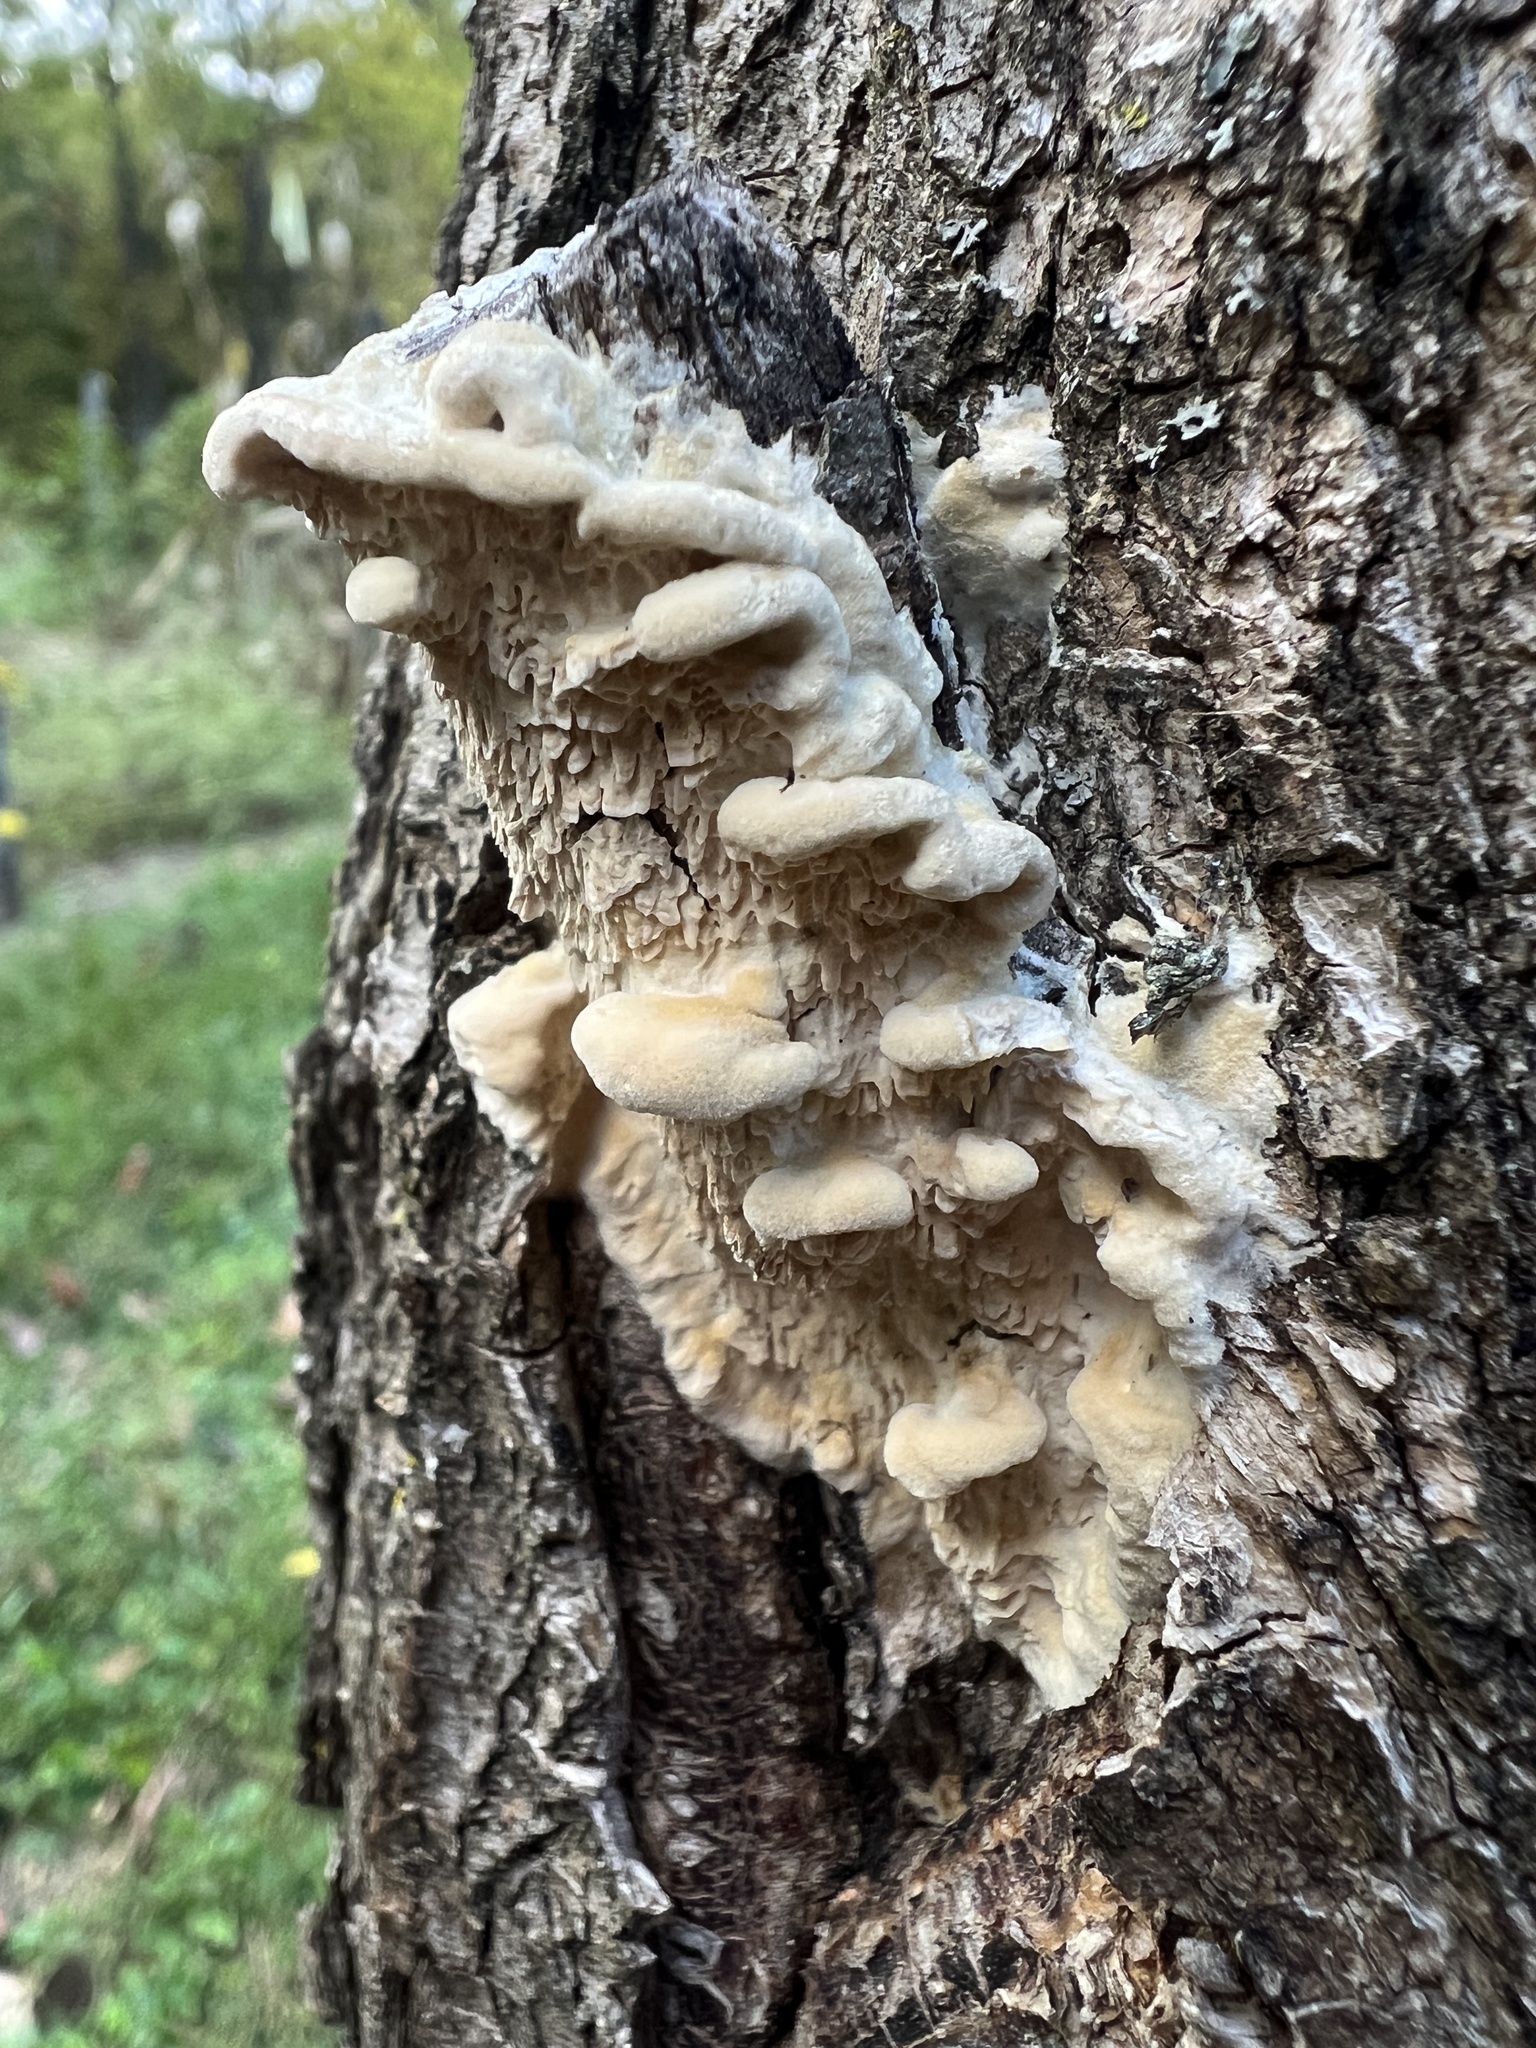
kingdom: Fungi
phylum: Basidiomycota
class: Agaricomycetes
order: Polyporales
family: Meruliaceae
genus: Irpiciporus
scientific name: Irpiciporus pachyodon
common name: Marshmallow polypore
